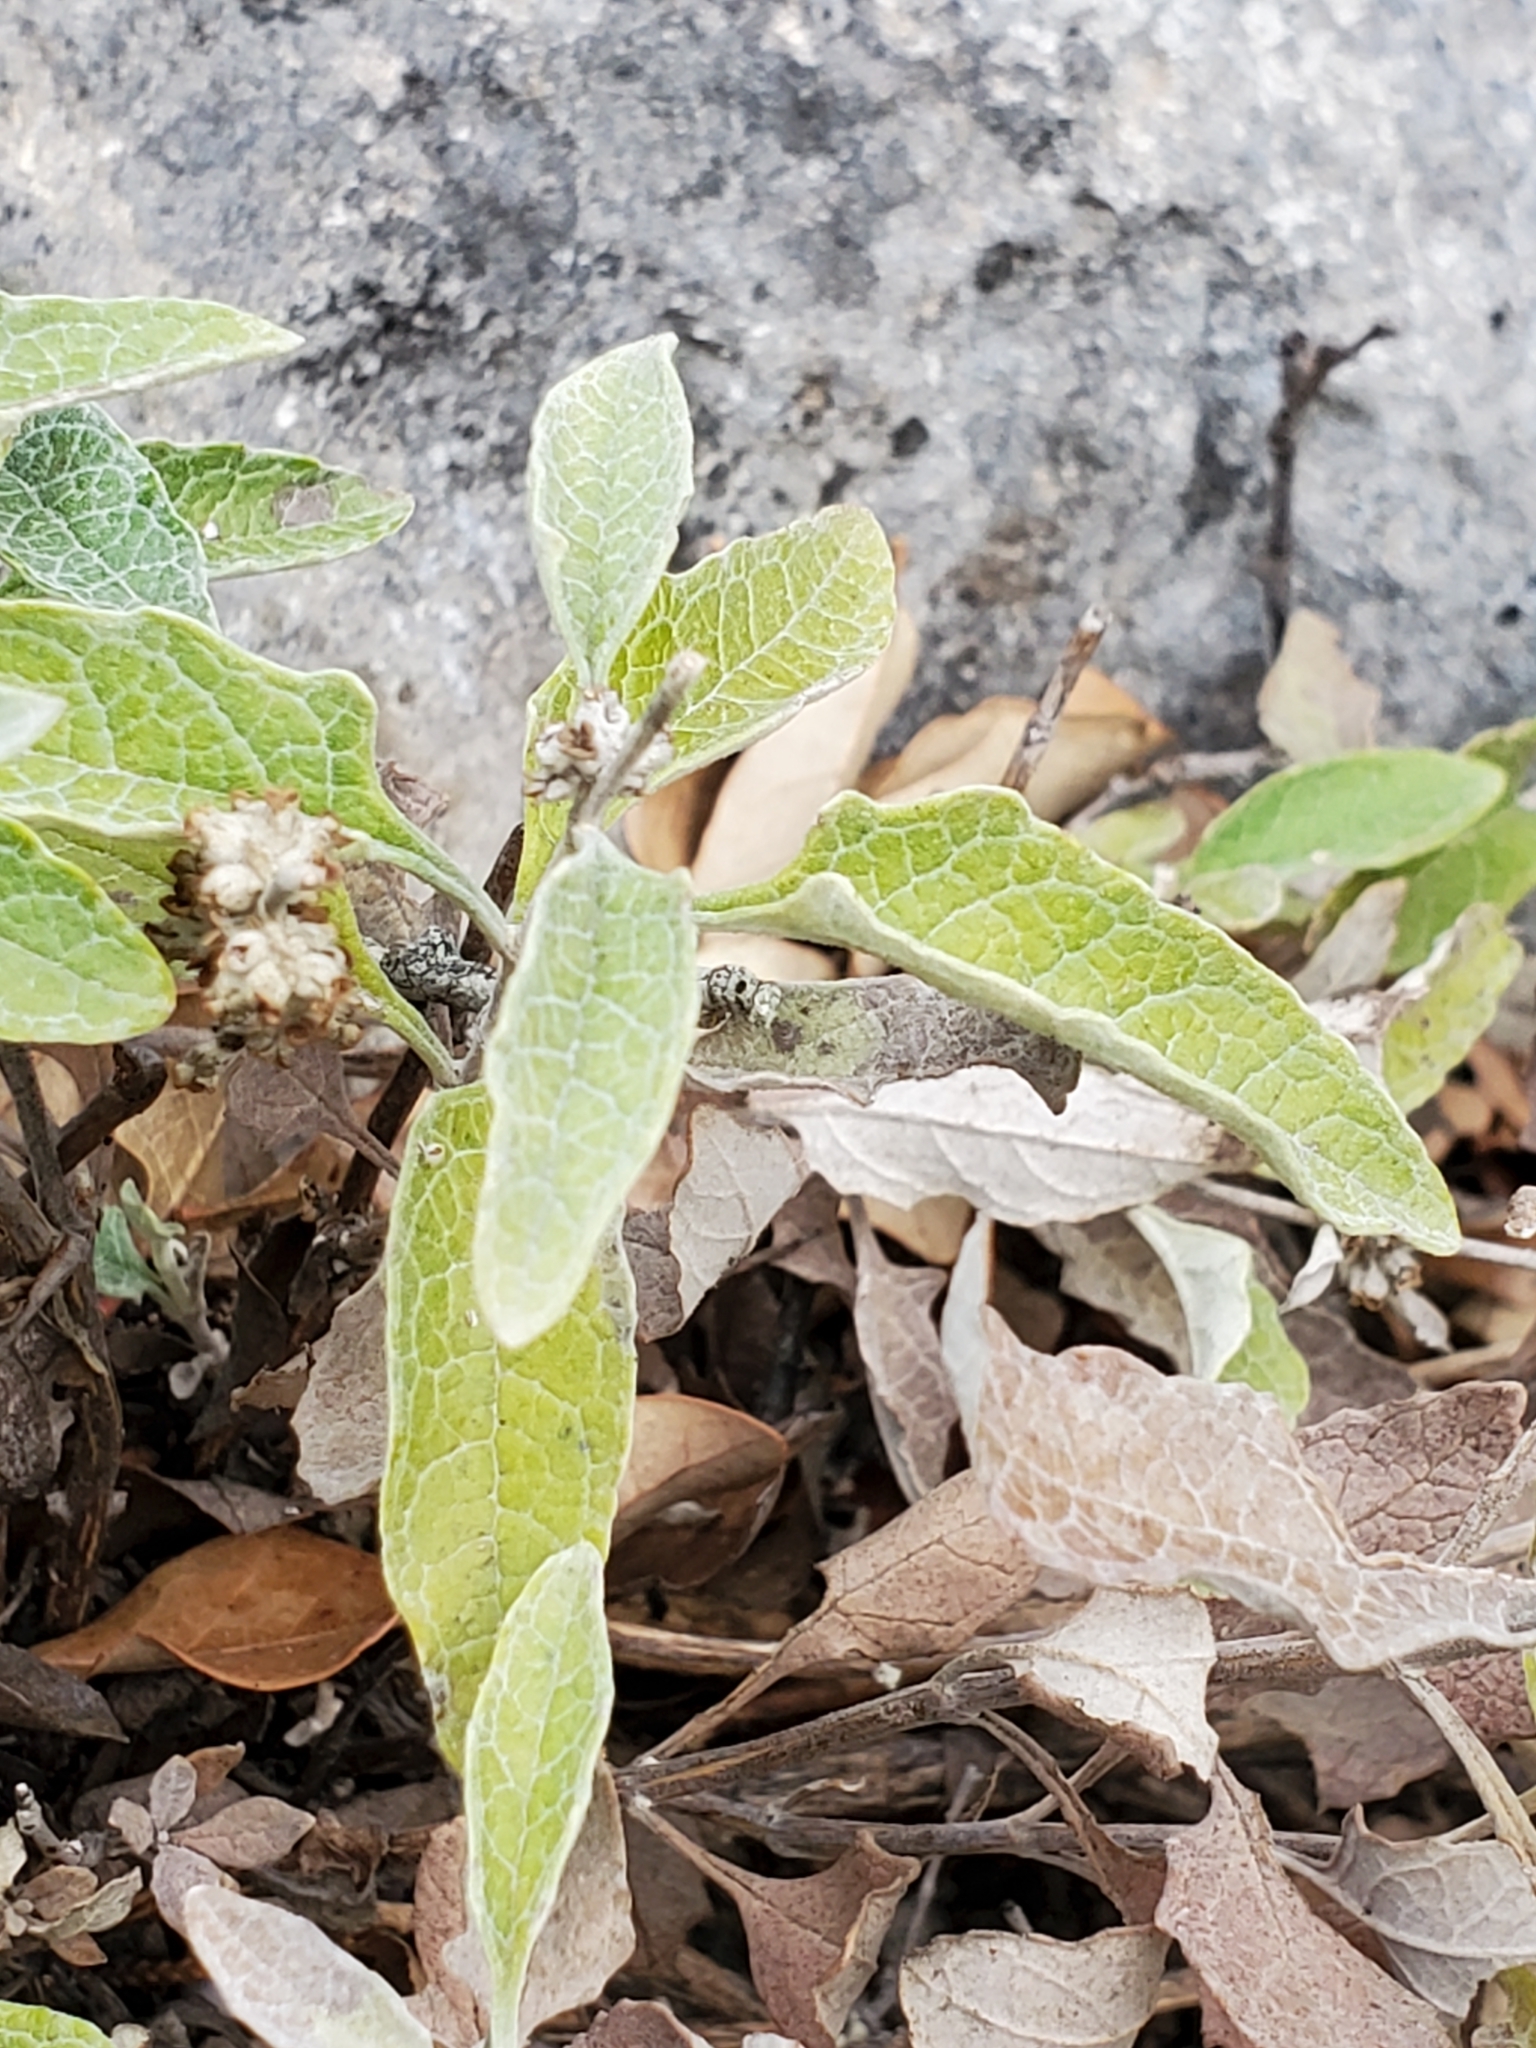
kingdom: Plantae
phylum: Tracheophyta
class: Magnoliopsida
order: Lamiales
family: Scrophulariaceae
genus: Buddleja
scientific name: Buddleja racemosa
